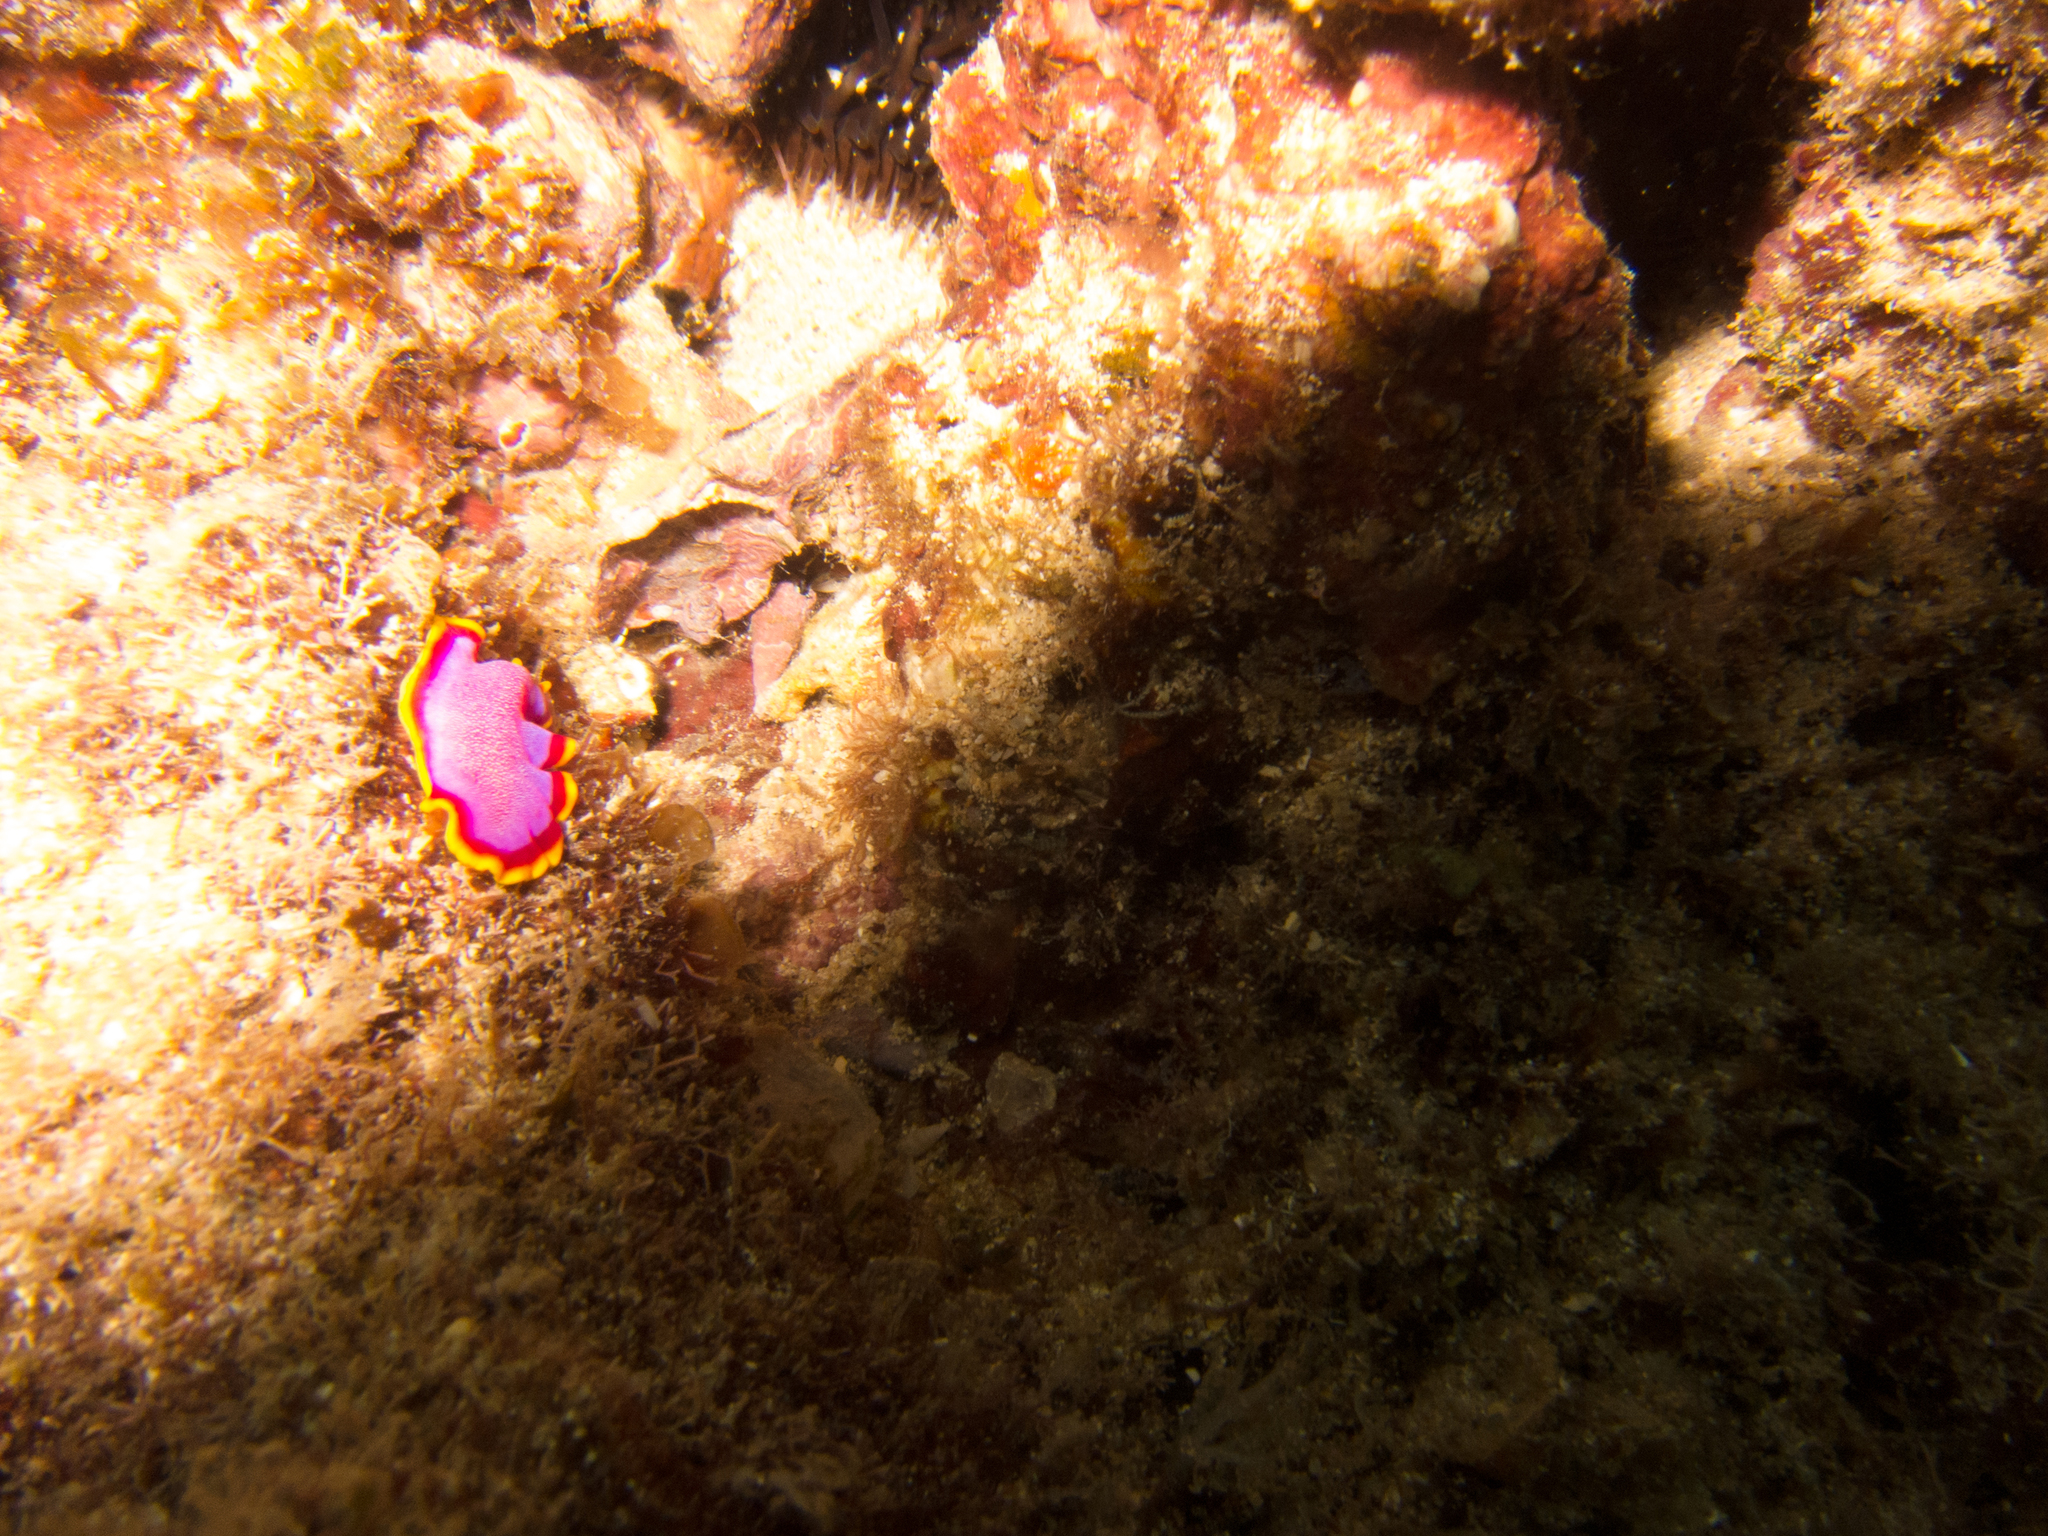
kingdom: Animalia
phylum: Platyhelminthes
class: Turbellaria
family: Pseudocerotidae
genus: Pseudoceros
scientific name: Pseudoceros ferrugineus
